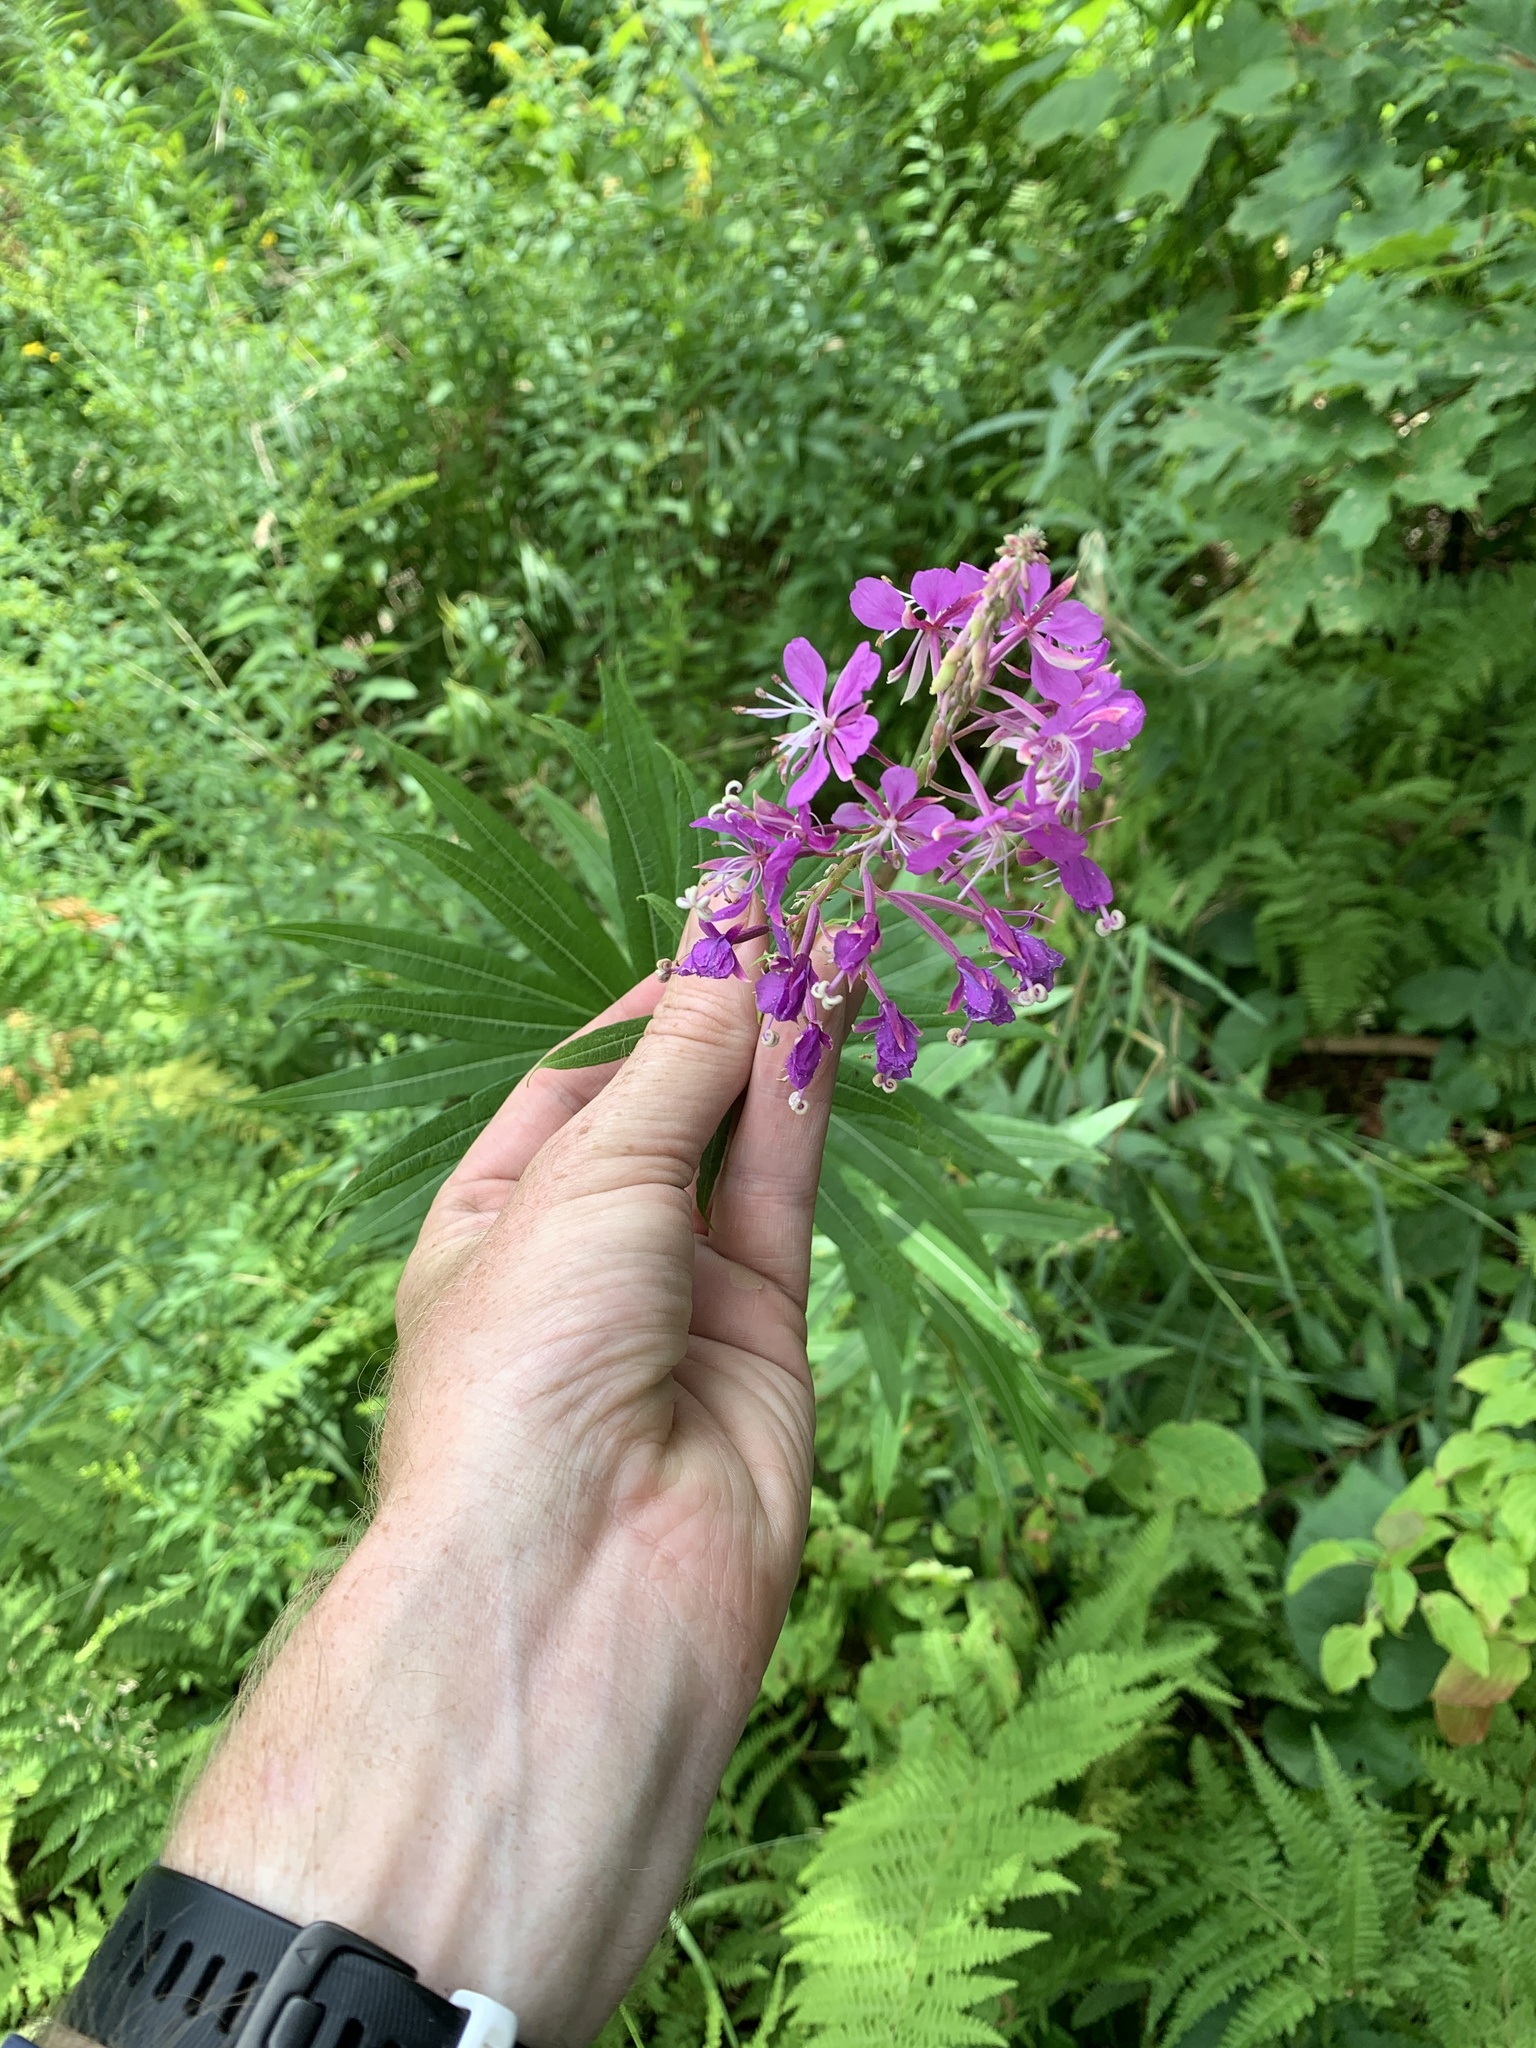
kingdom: Plantae
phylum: Tracheophyta
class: Magnoliopsida
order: Myrtales
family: Onagraceae
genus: Chamaenerion
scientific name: Chamaenerion angustifolium
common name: Fireweed
